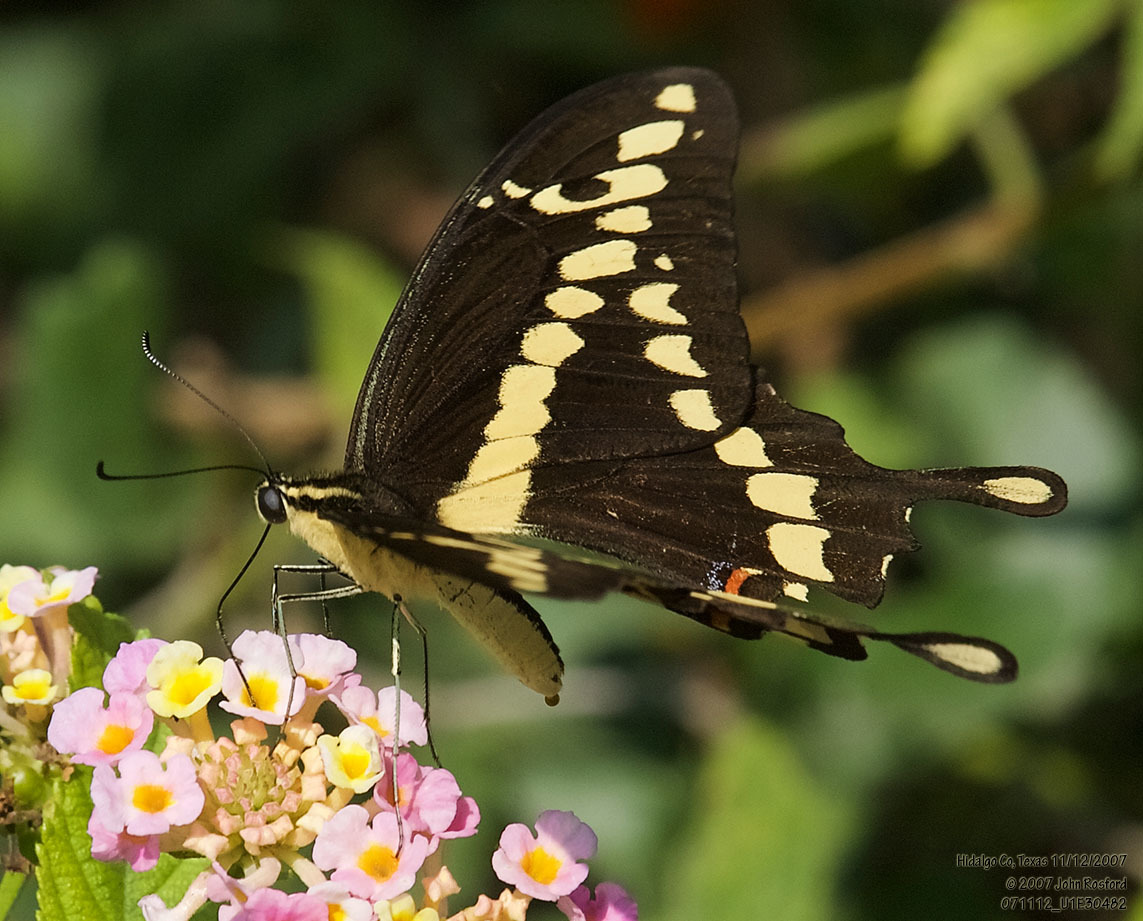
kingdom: Animalia
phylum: Arthropoda
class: Insecta
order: Lepidoptera
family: Papilionidae
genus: Papilio
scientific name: Papilio rumiko
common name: Western giant swallowtail
